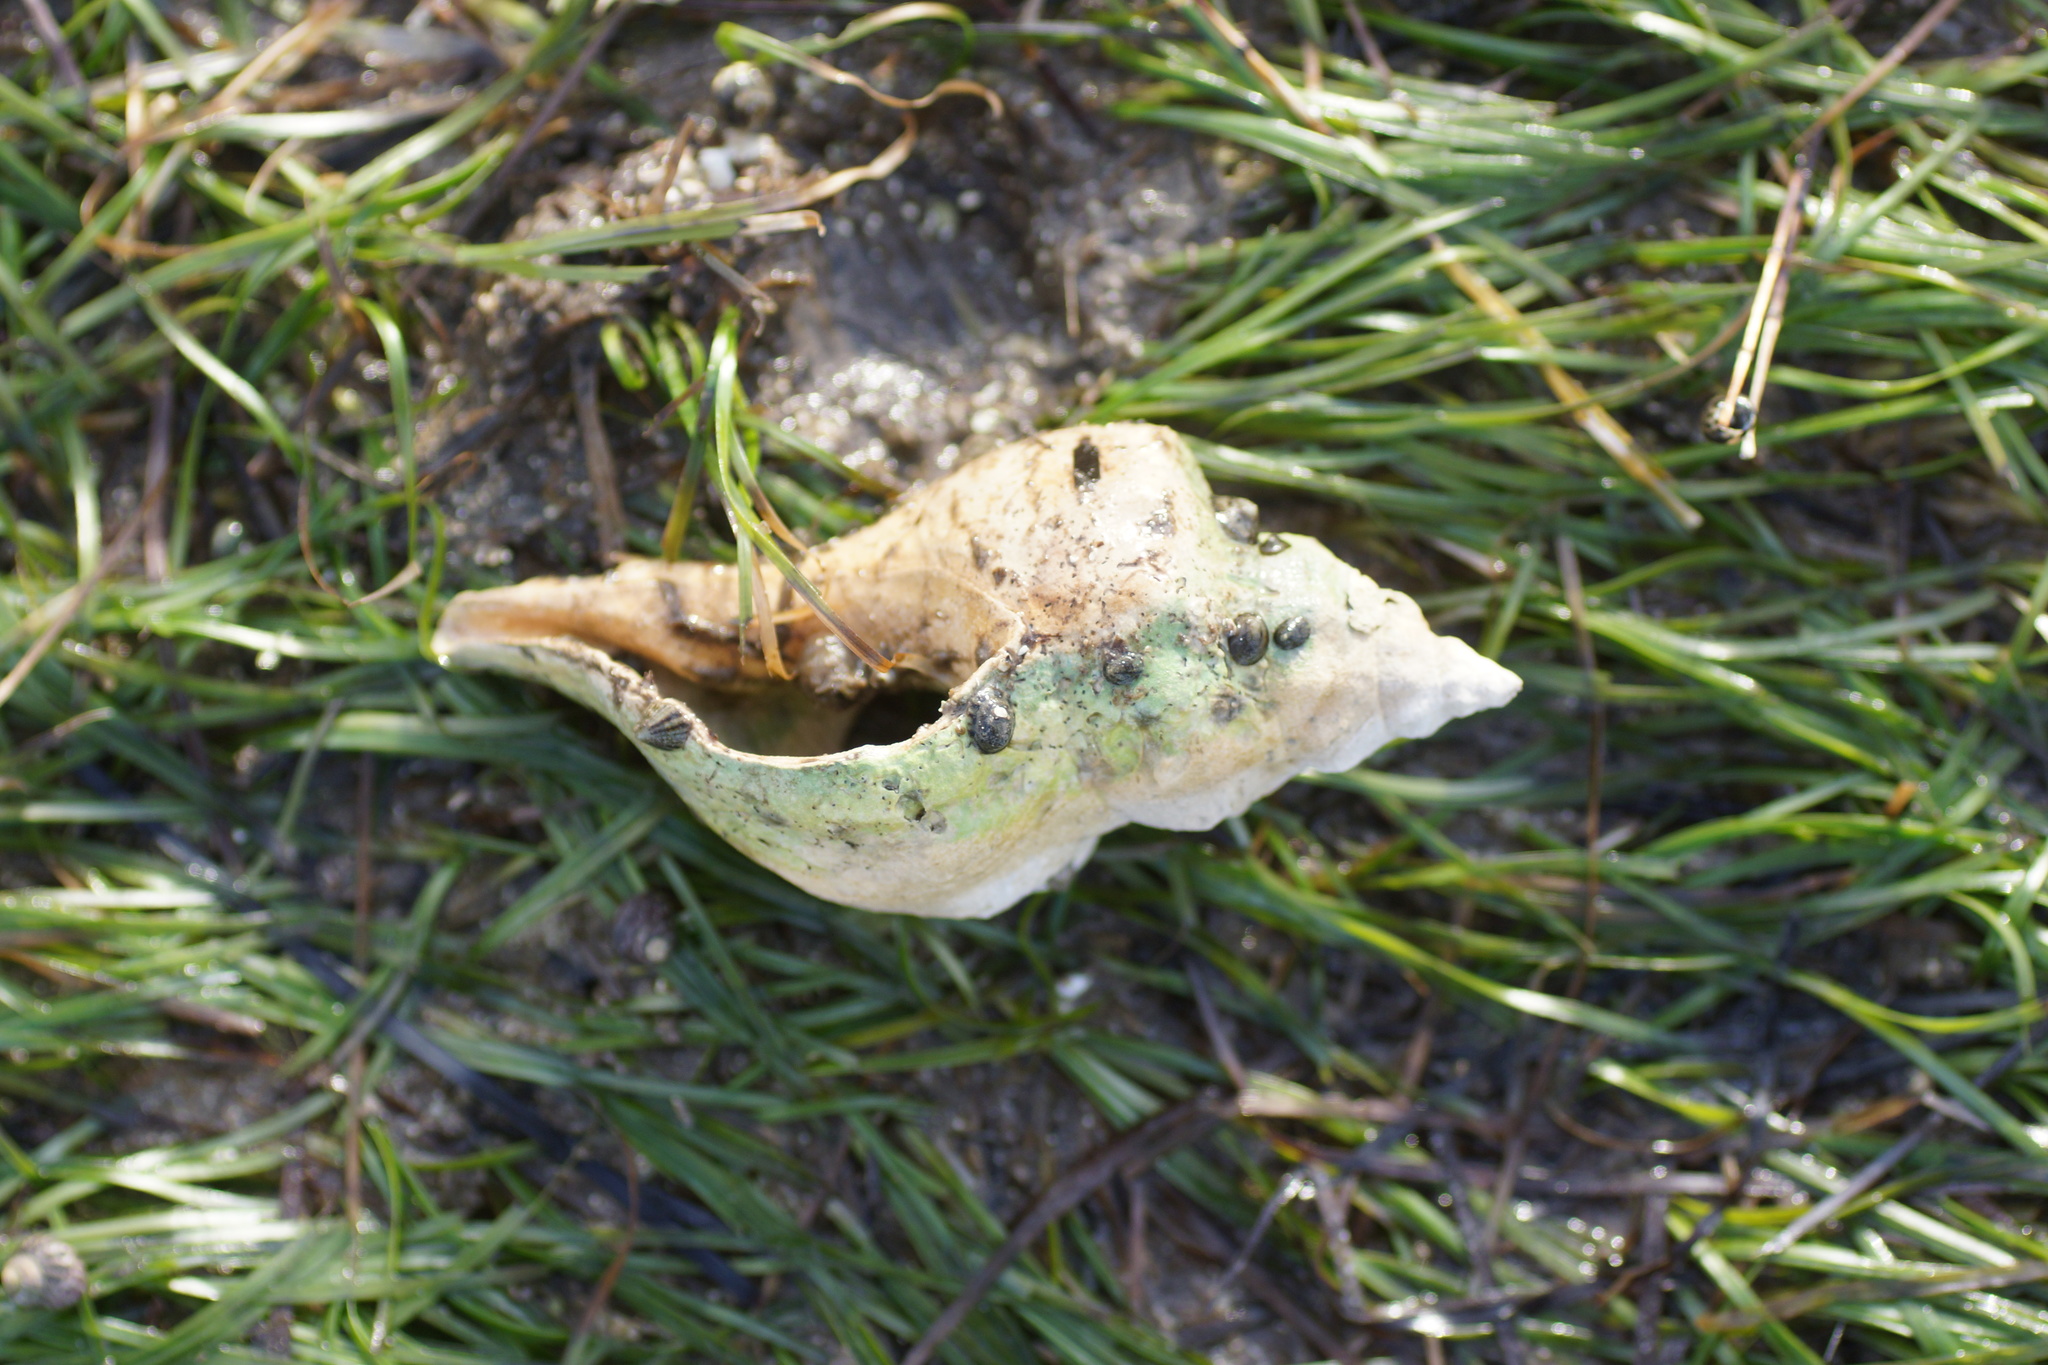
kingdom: Animalia
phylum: Mollusca
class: Gastropoda
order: Neogastropoda
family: Fasciolariidae
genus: Australaria
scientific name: Australaria australasia
